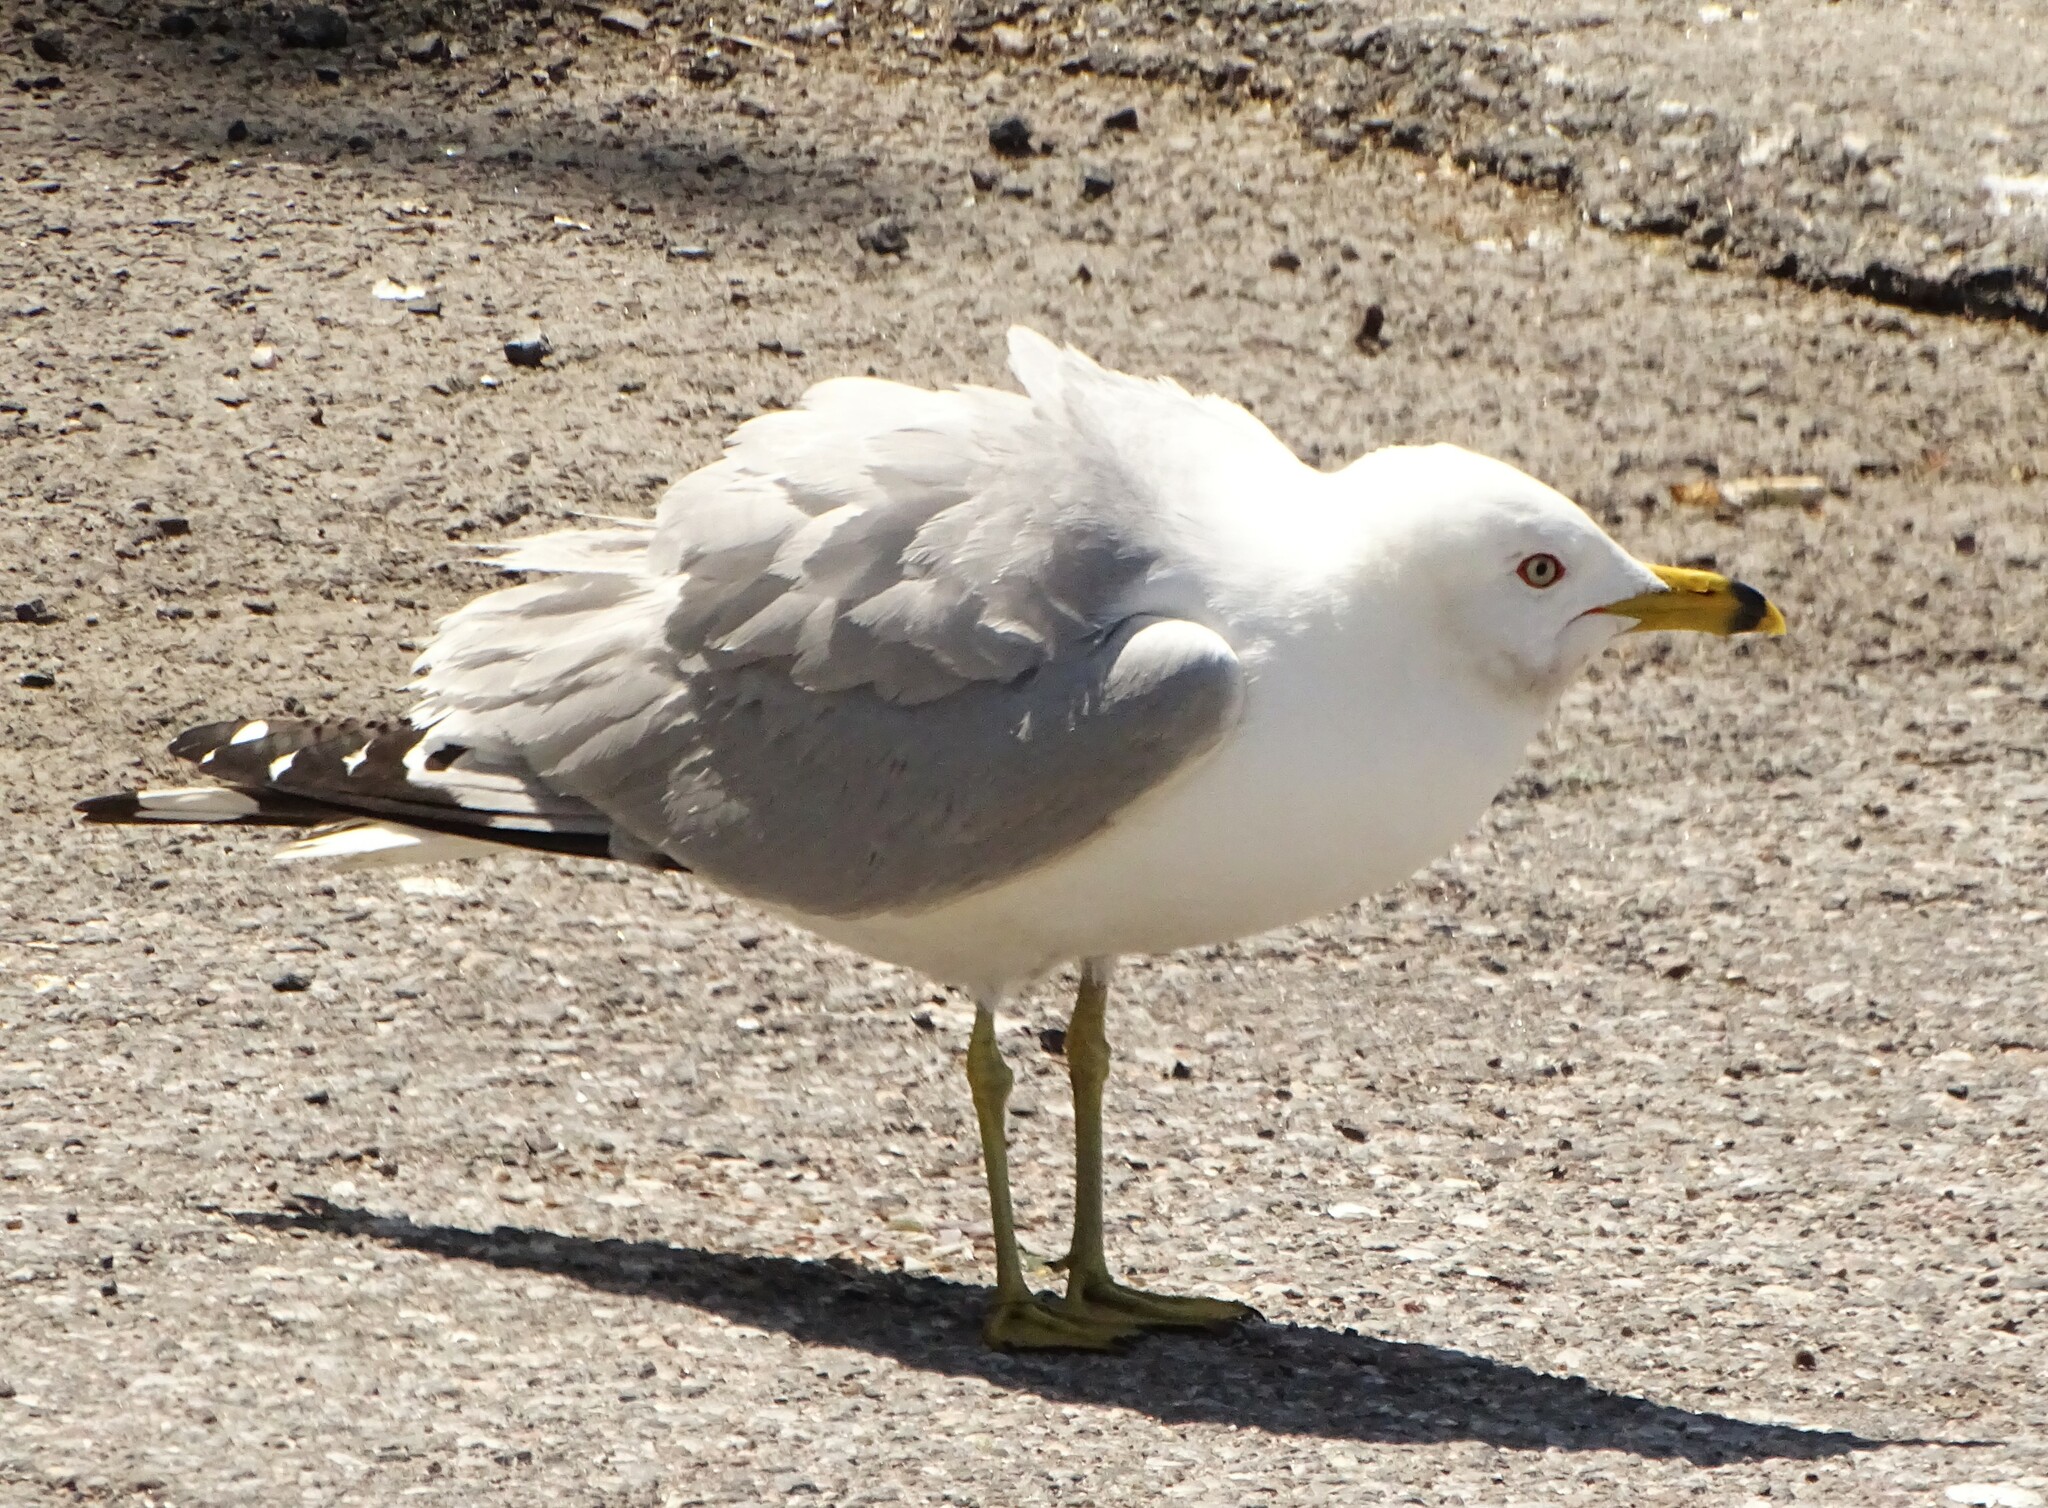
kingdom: Animalia
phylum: Chordata
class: Aves
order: Charadriiformes
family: Laridae
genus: Larus
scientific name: Larus delawarensis
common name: Ring-billed gull
